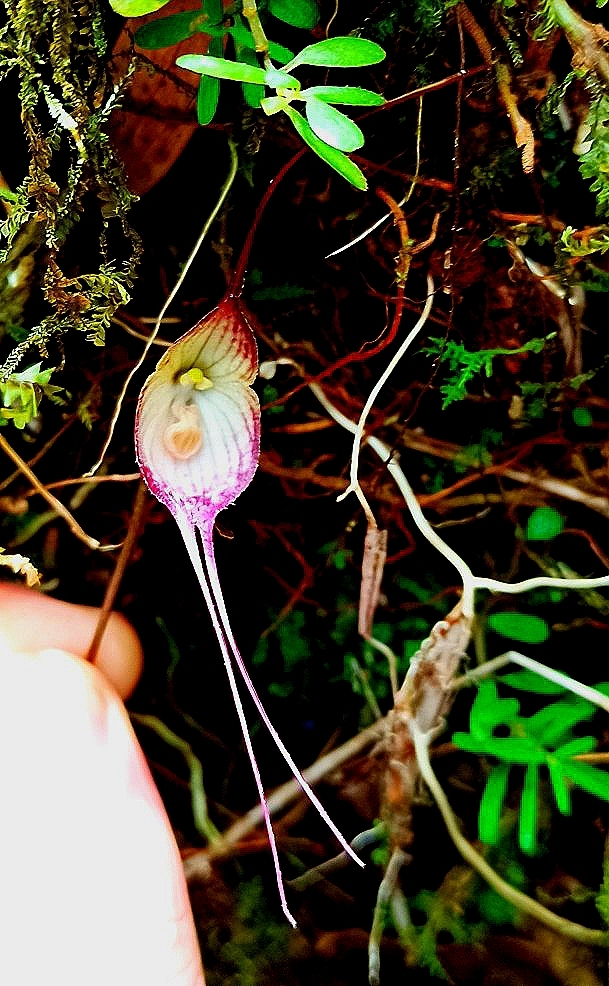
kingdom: Plantae
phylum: Tracheophyta
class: Liliopsida
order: Asparagales
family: Orchidaceae
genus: Dracula
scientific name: Dracula psyche
